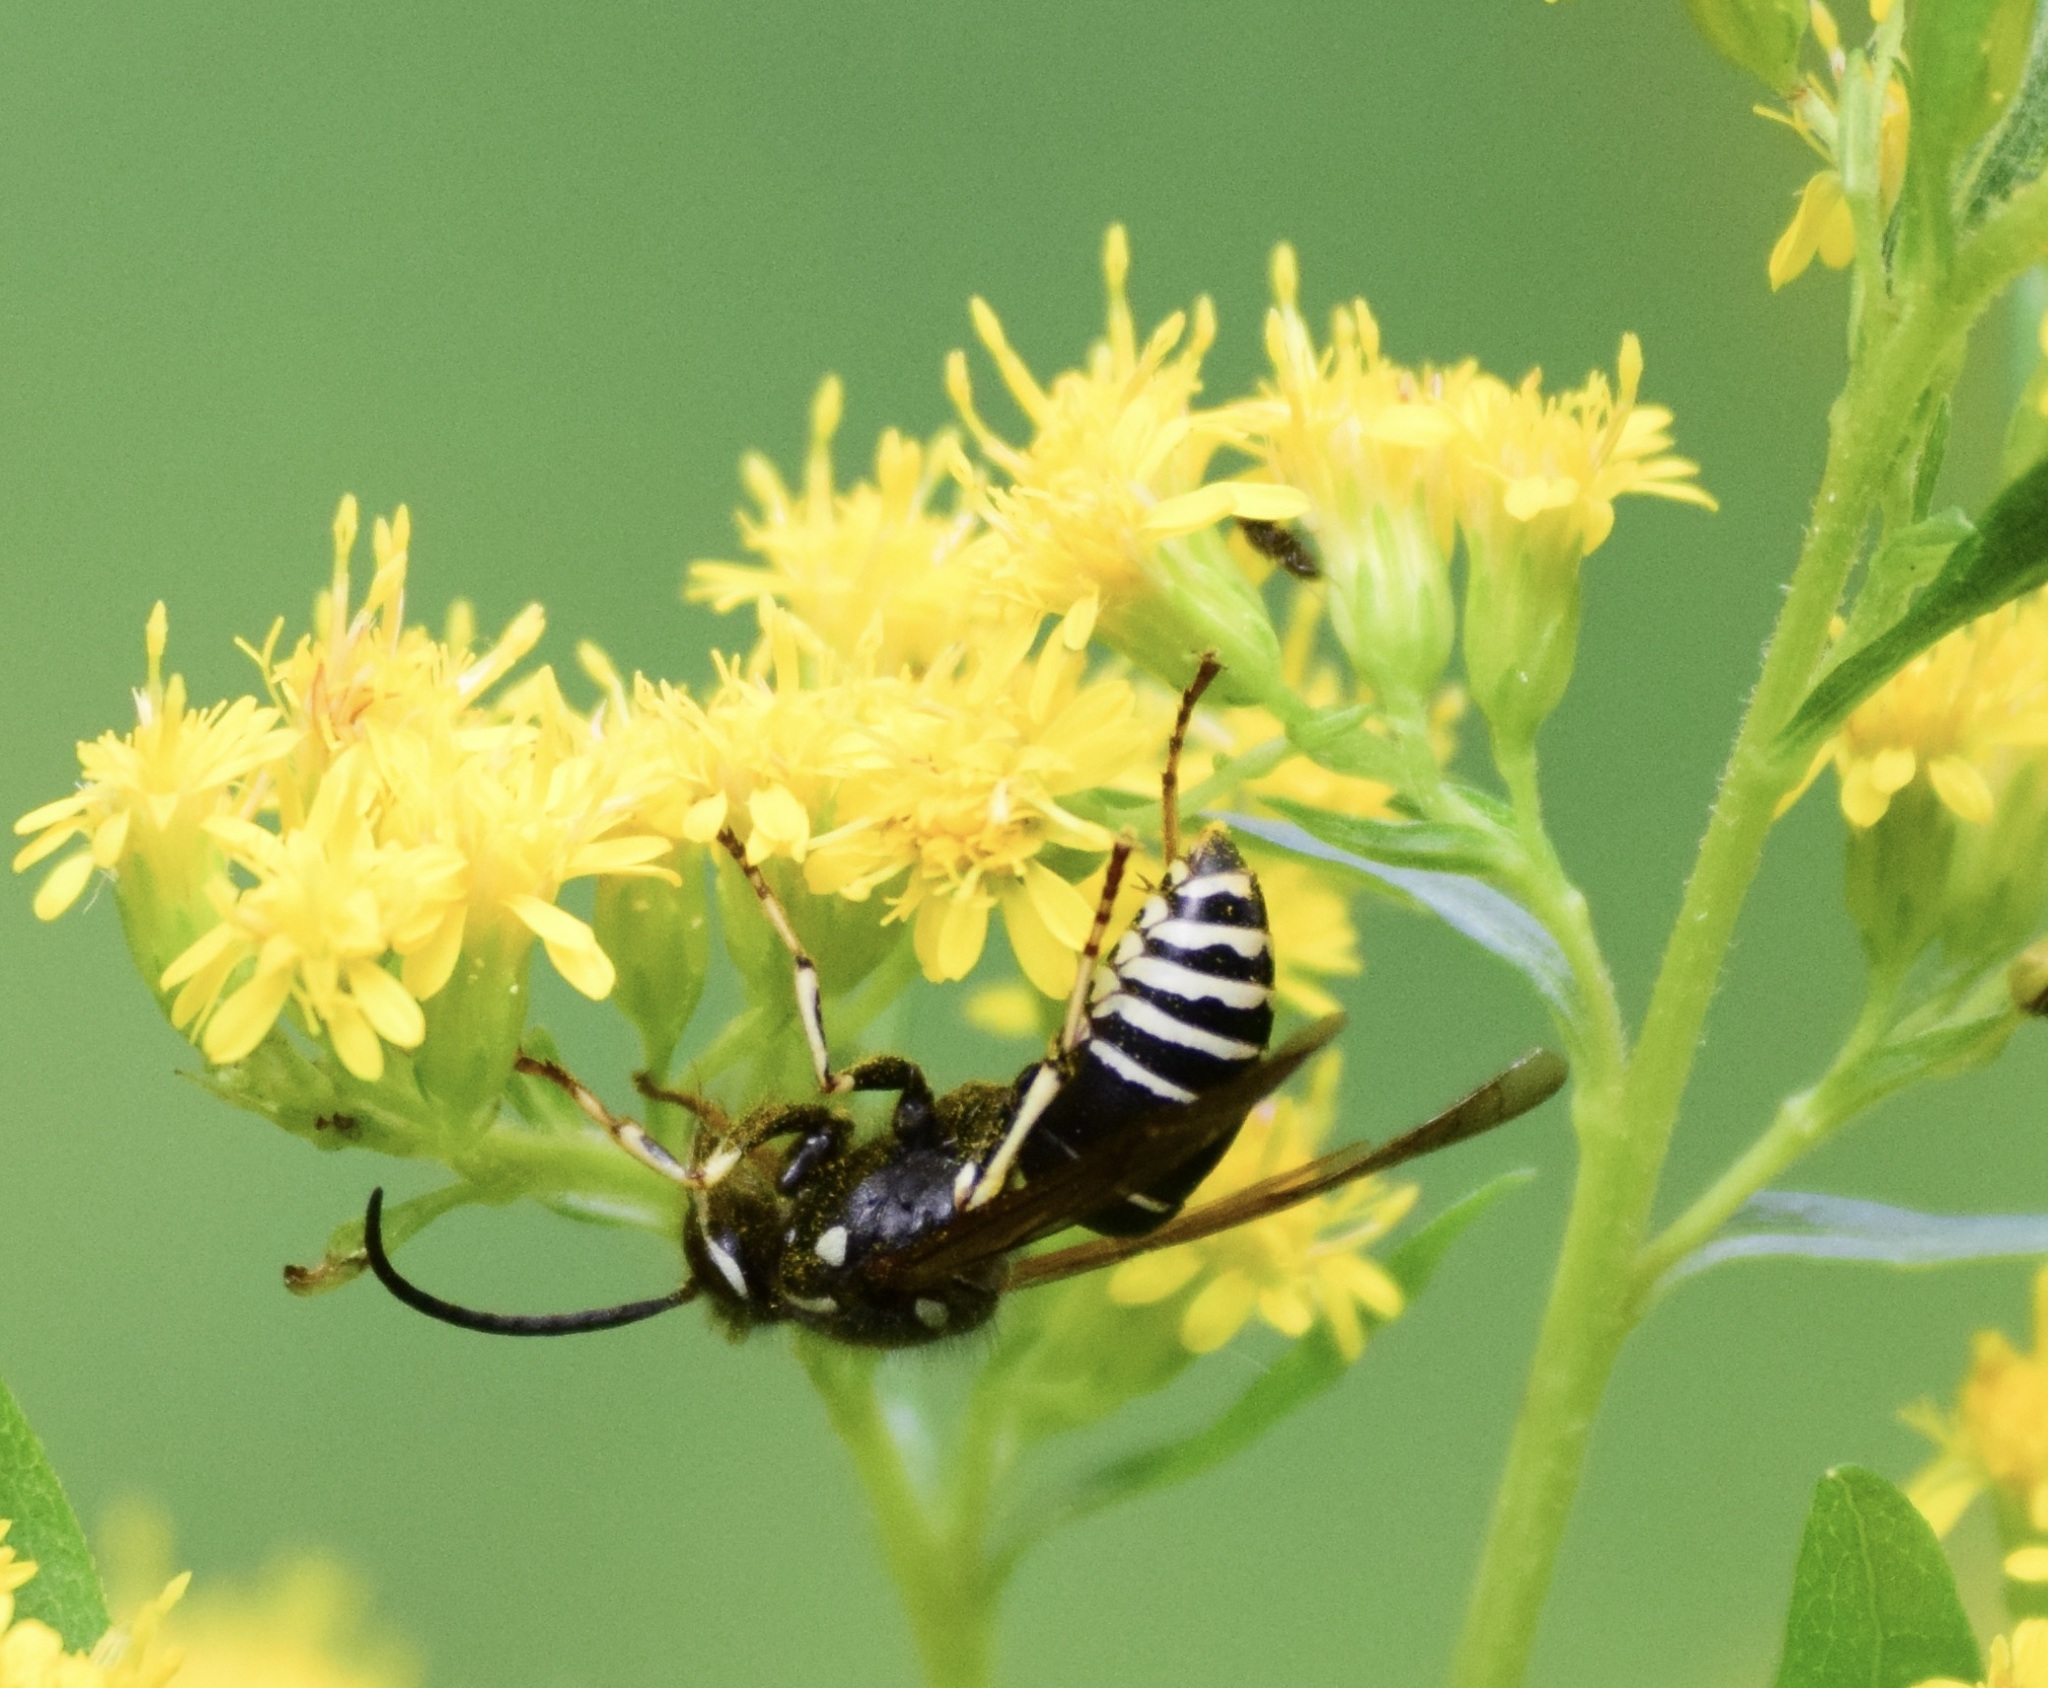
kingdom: Animalia
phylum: Arthropoda
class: Insecta
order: Hymenoptera
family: Vespidae
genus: Dolichovespula
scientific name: Dolichovespula adulterina
